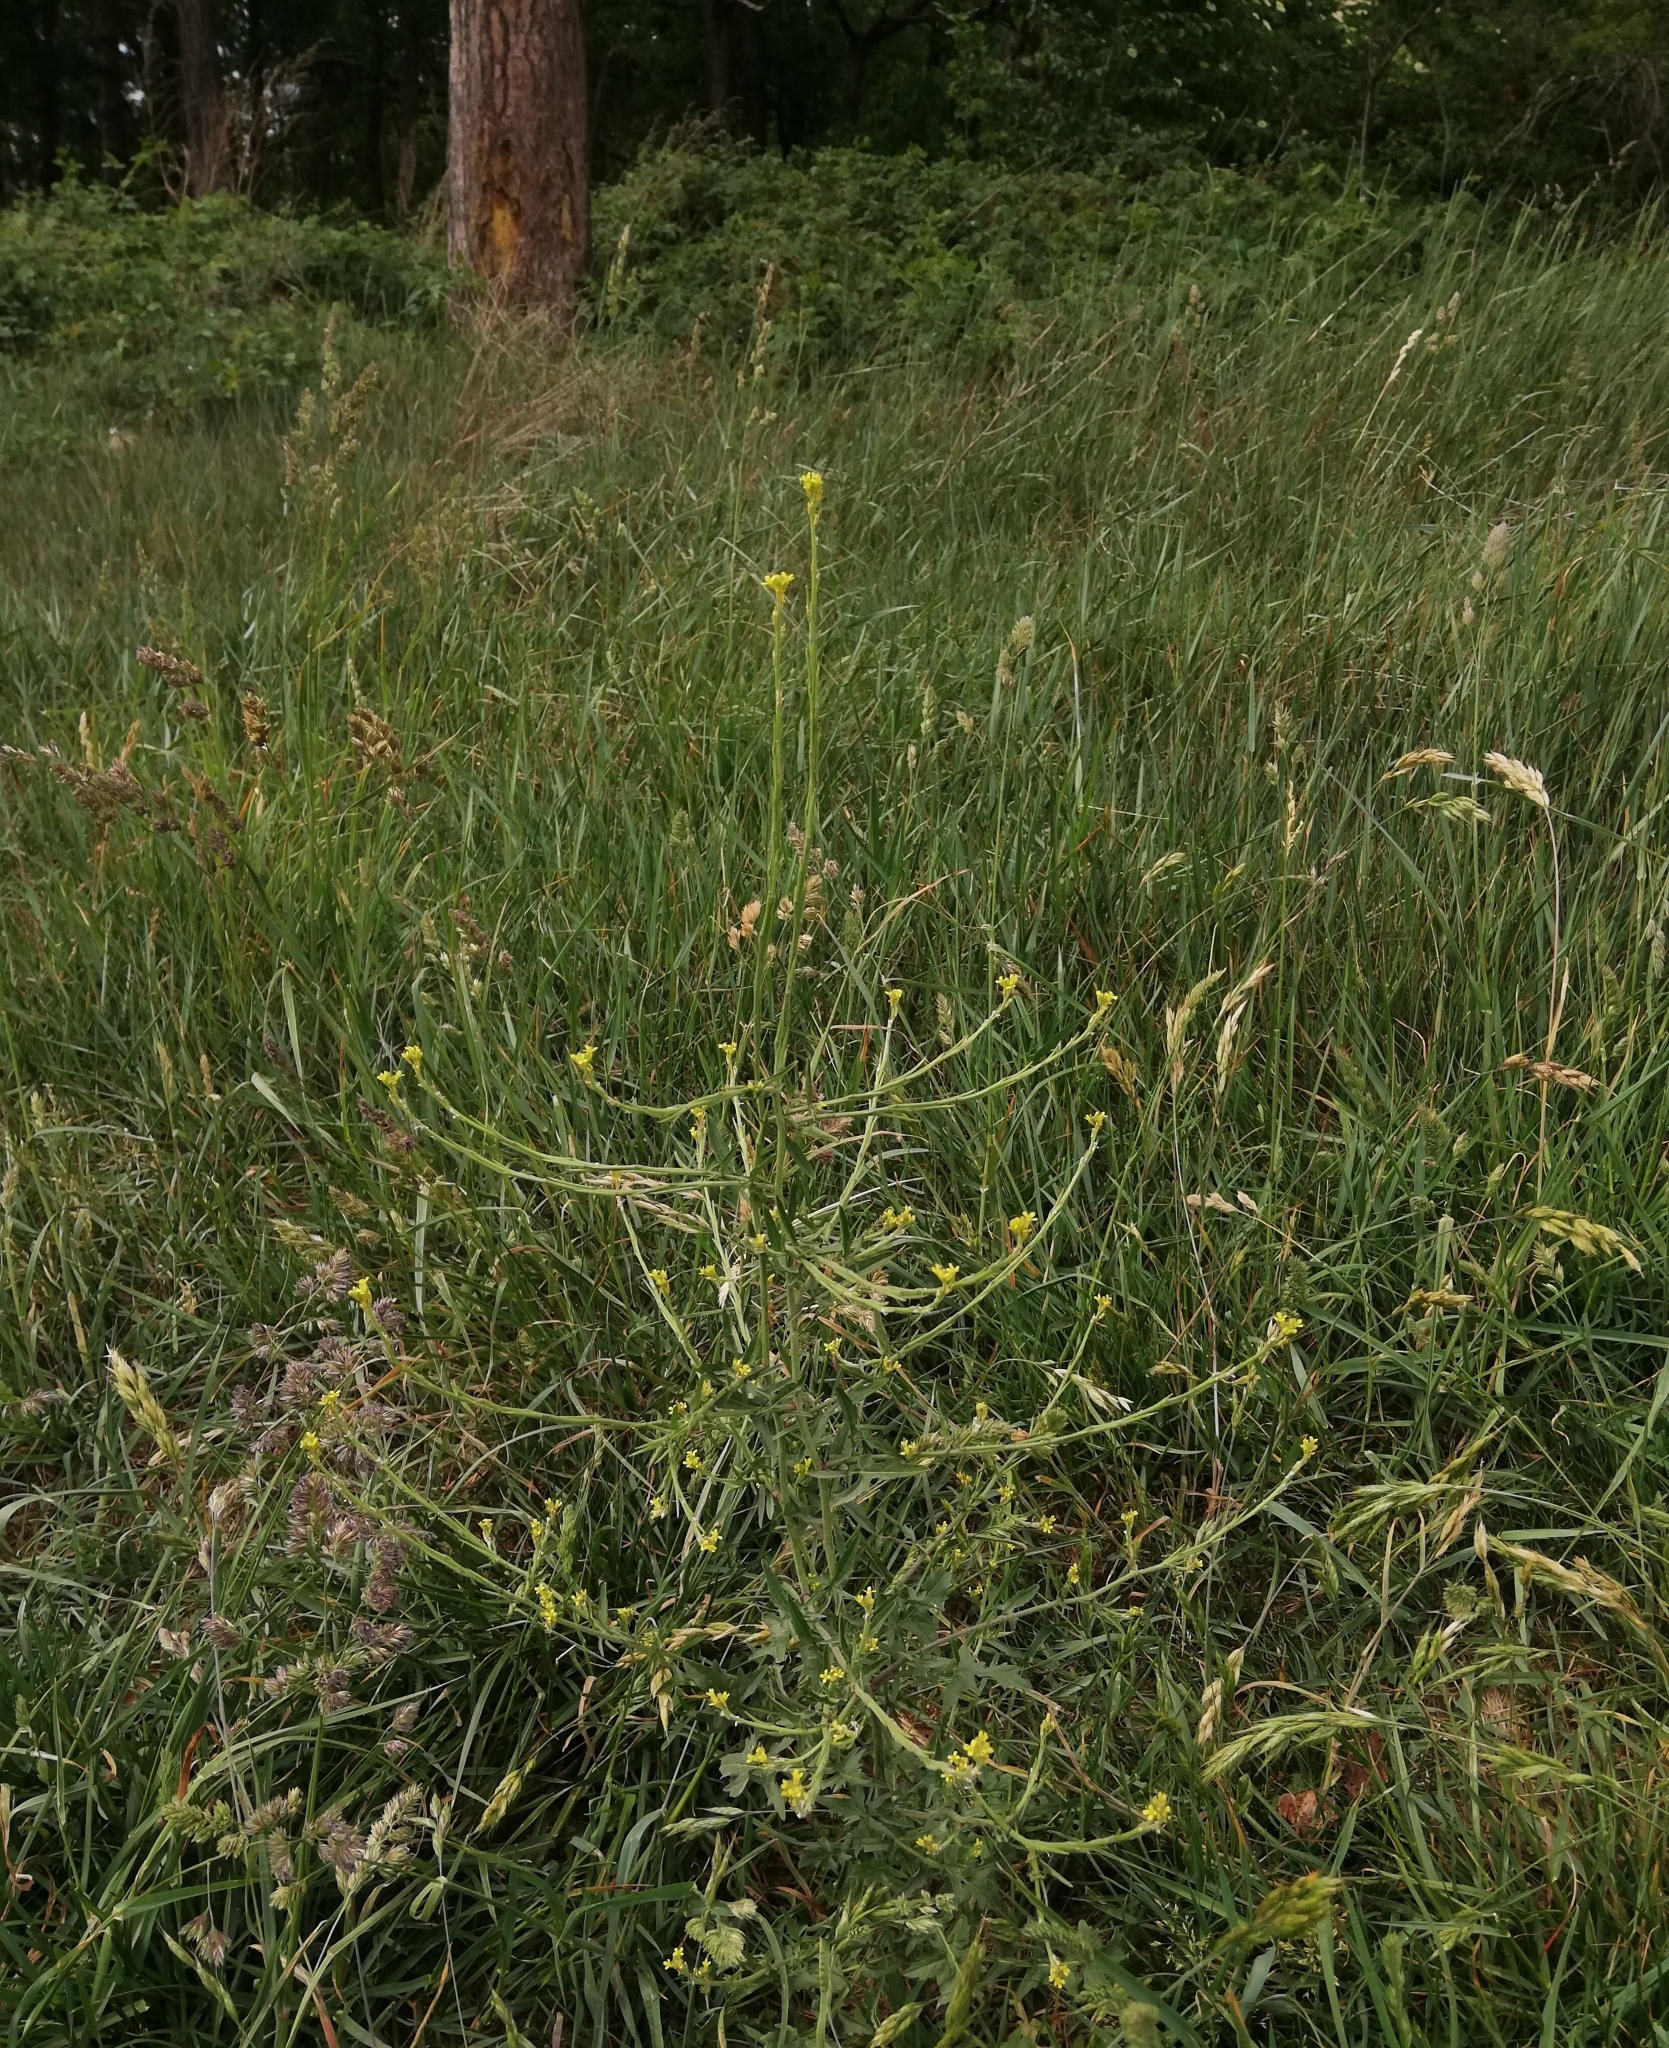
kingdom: Plantae
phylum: Tracheophyta
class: Magnoliopsida
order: Brassicales
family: Brassicaceae
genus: Sisymbrium
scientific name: Sisymbrium officinale
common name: Hedge mustard
